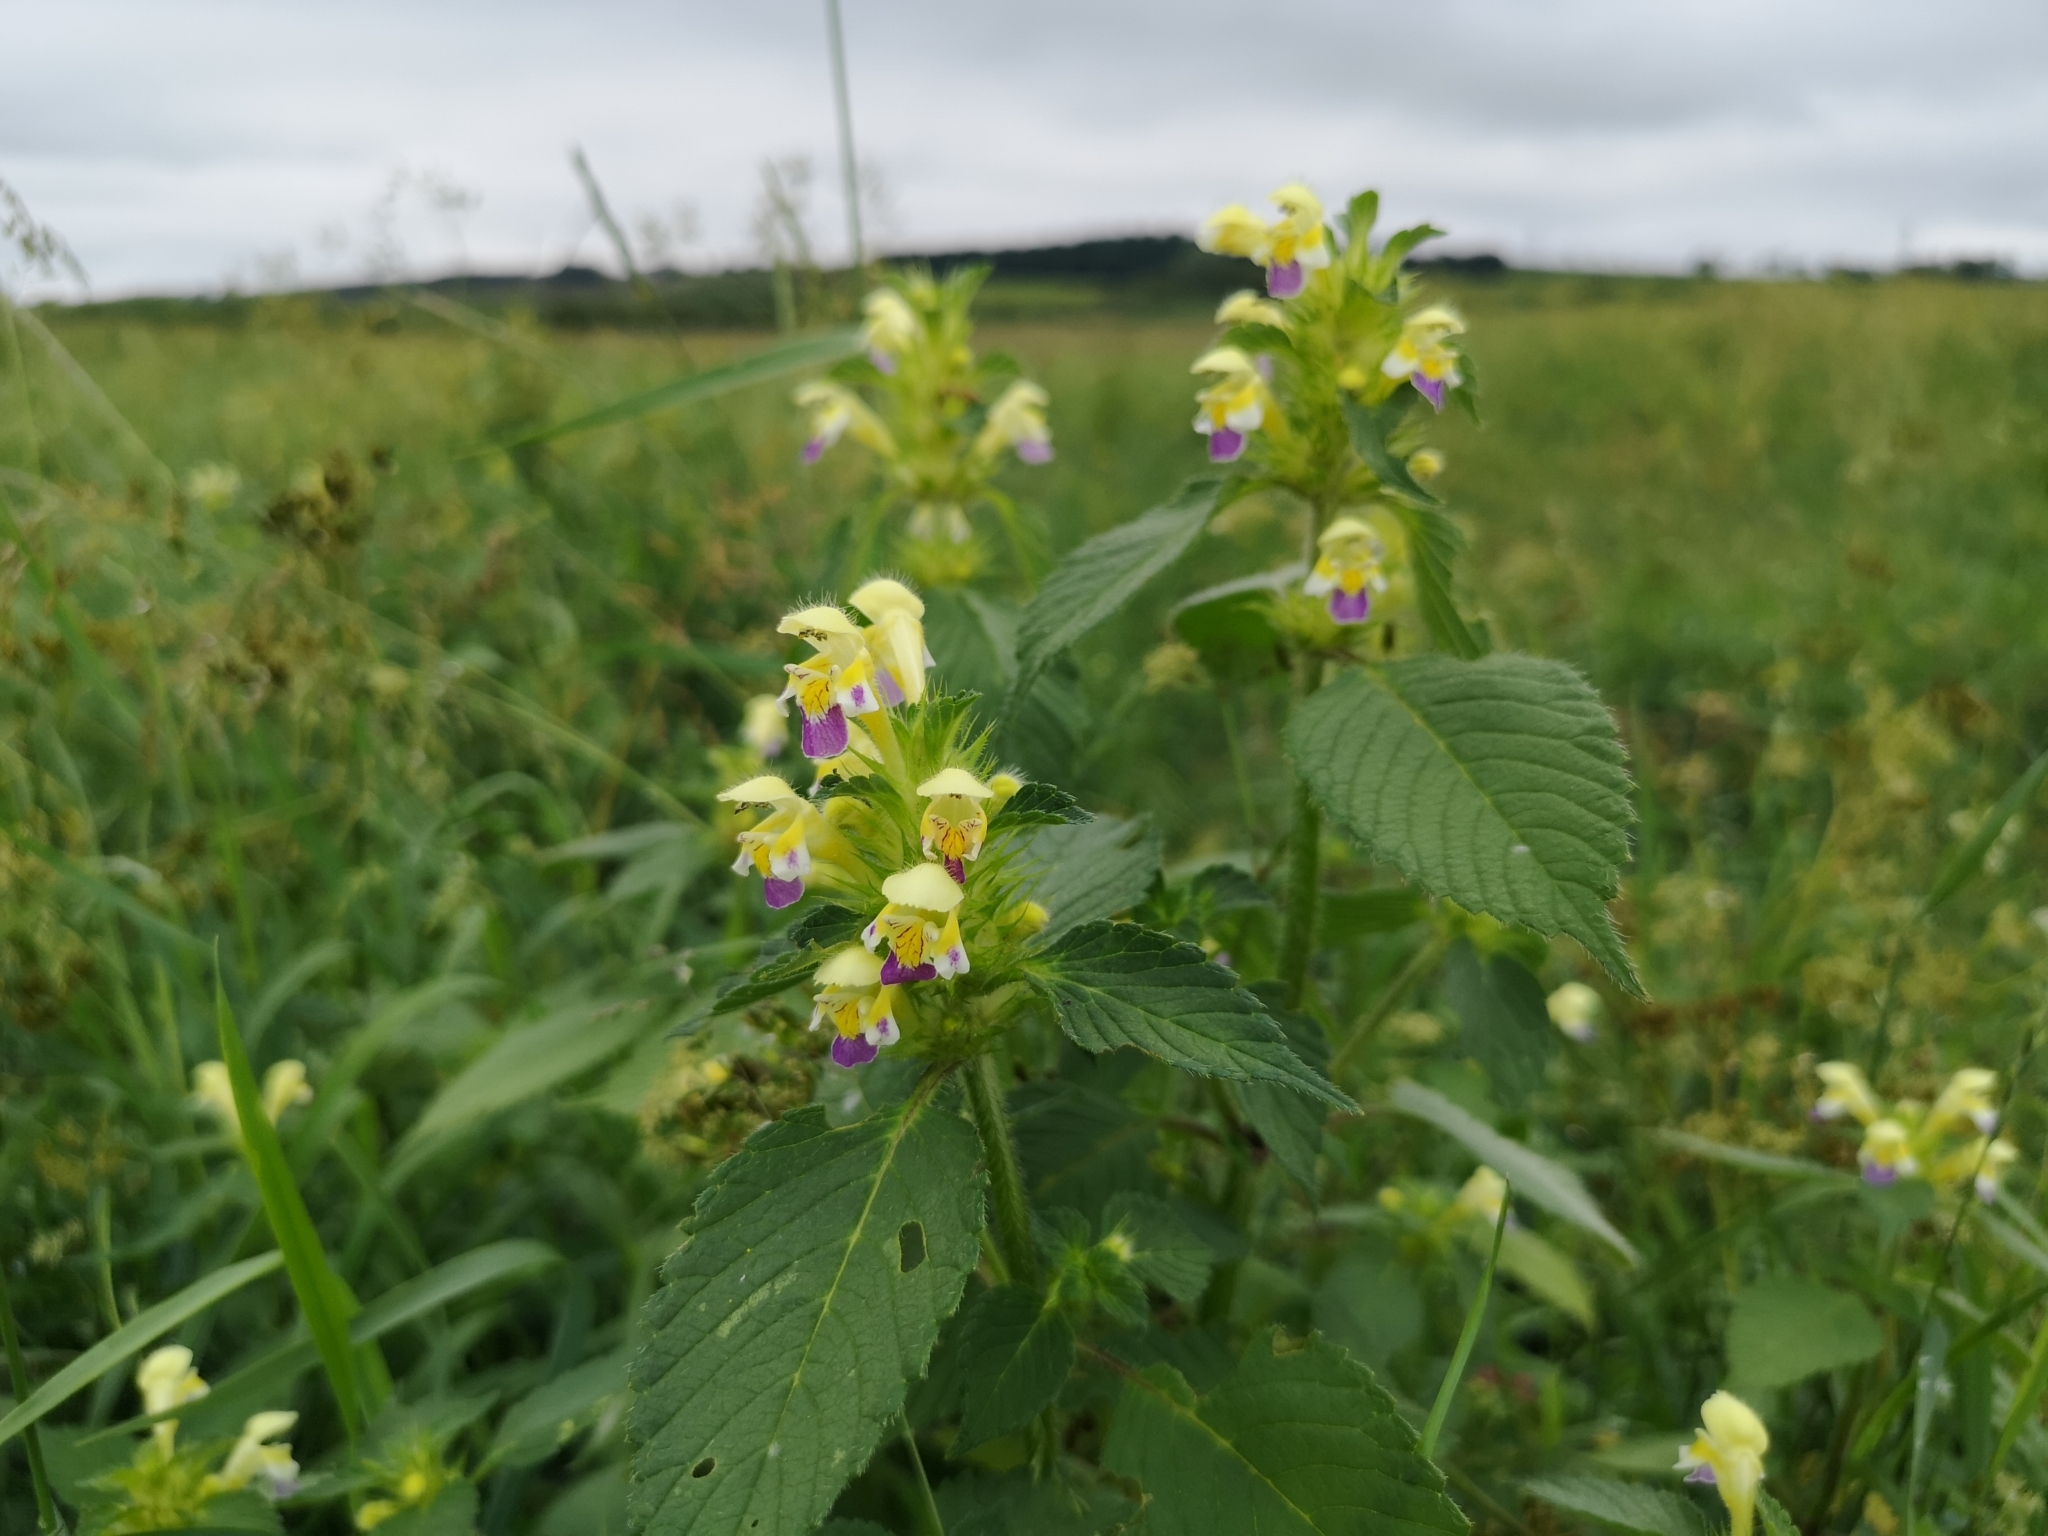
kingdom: Plantae
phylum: Tracheophyta
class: Magnoliopsida
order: Lamiales
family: Lamiaceae
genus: Galeopsis
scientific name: Galeopsis speciosa
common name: Large-flowered hemp-nettle
